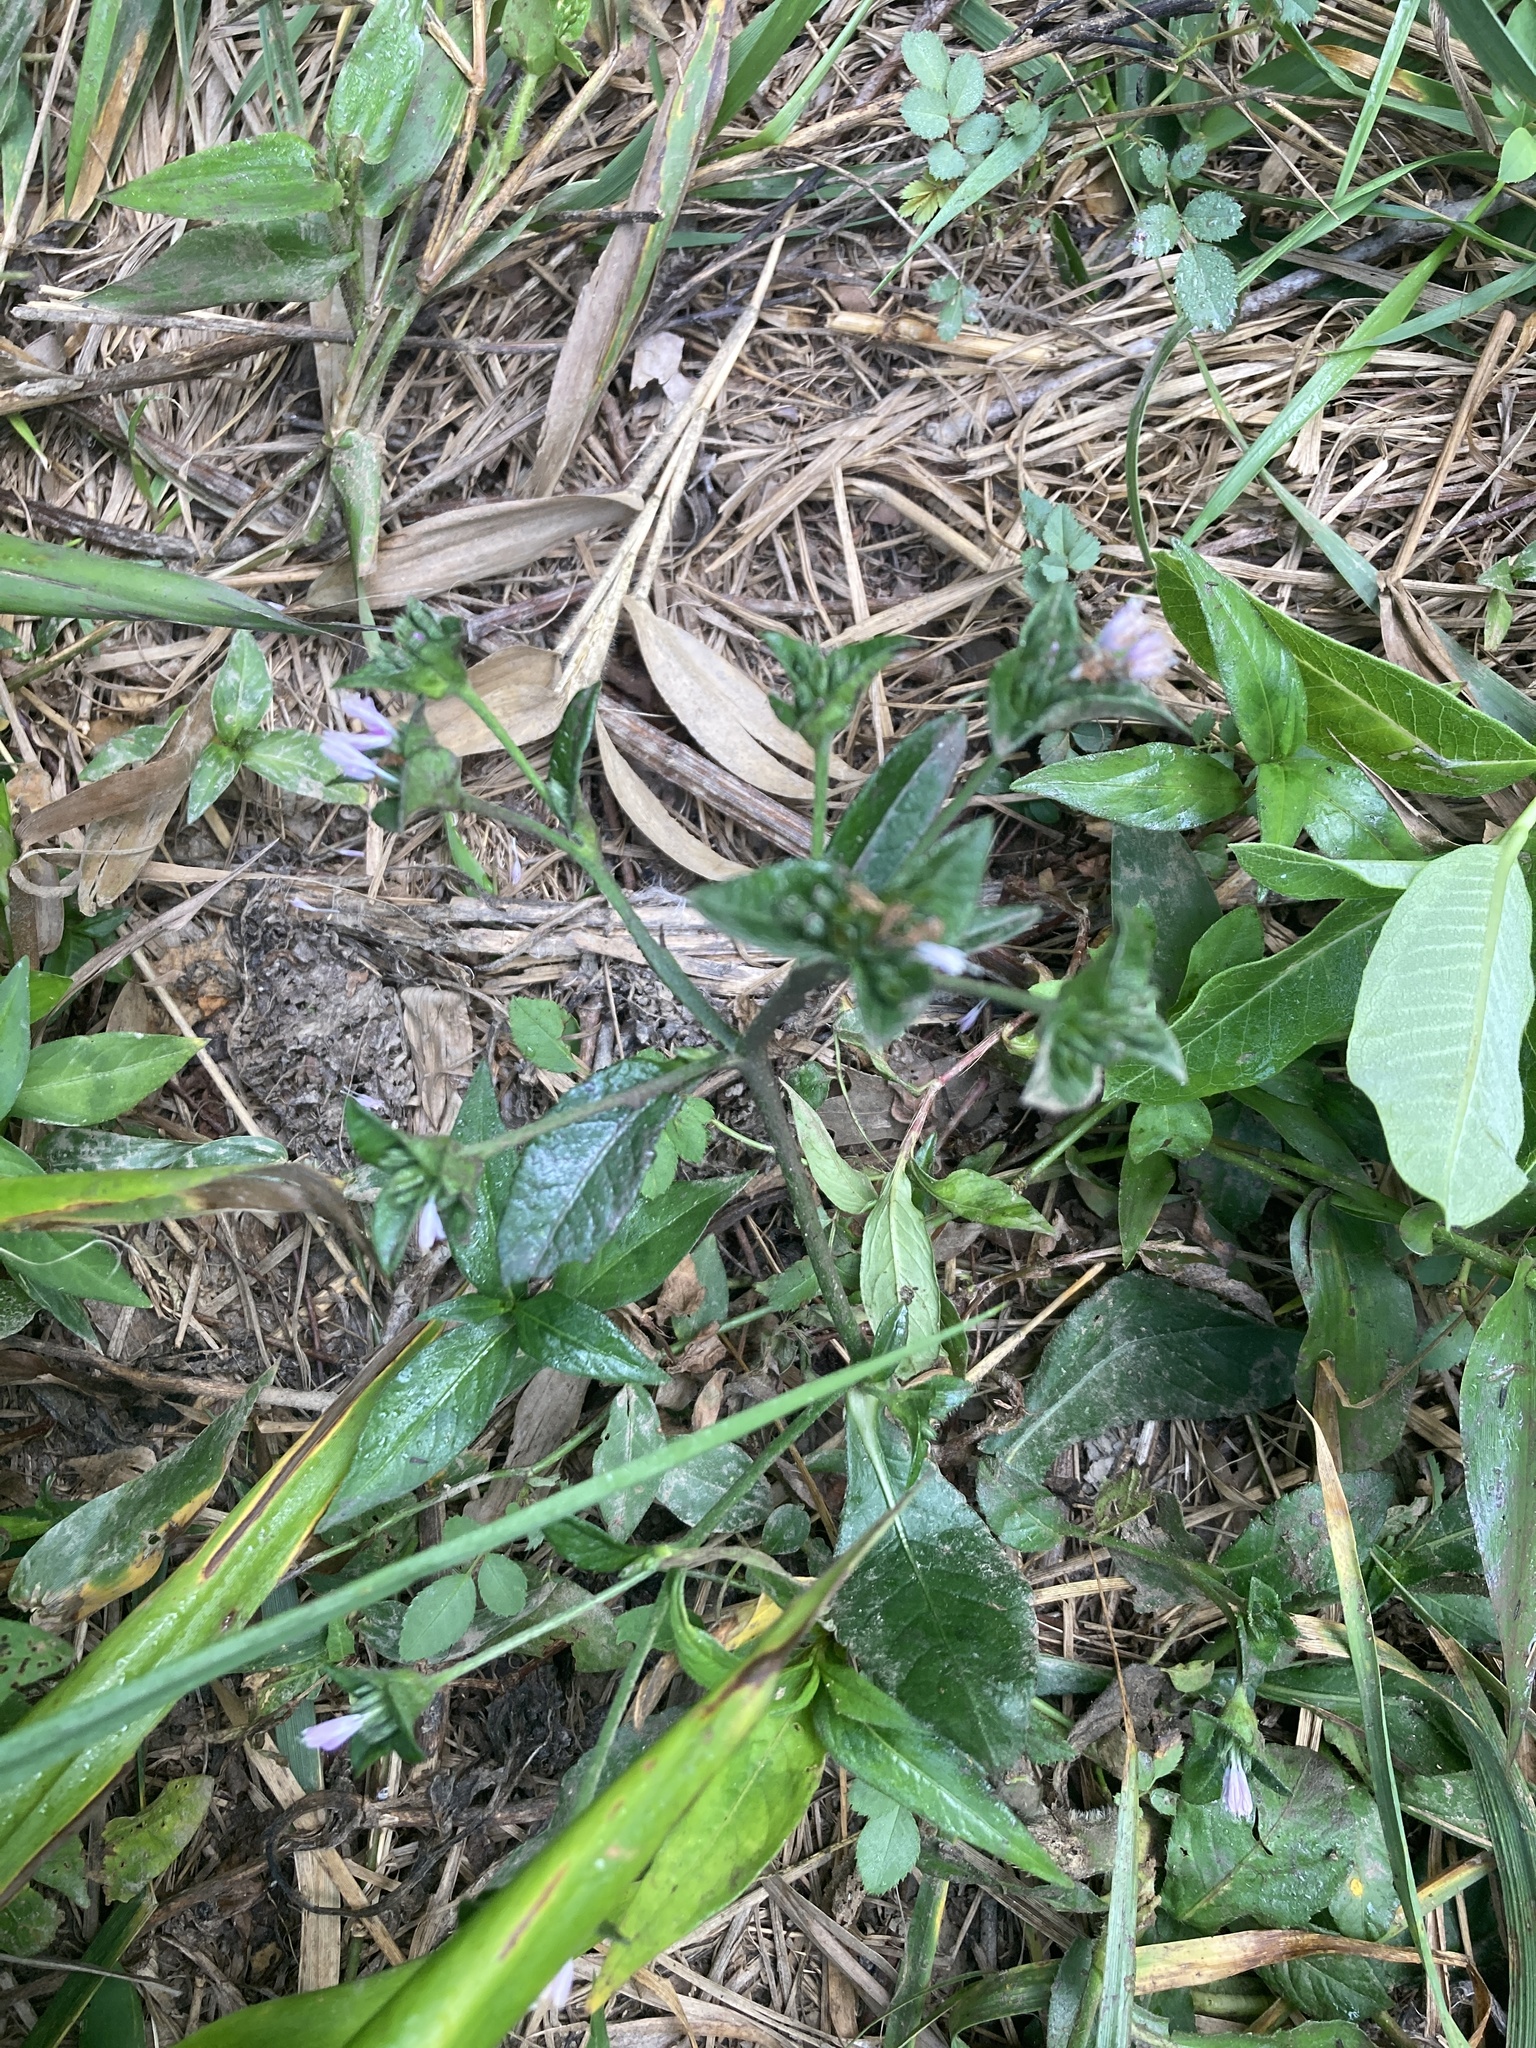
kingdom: Plantae
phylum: Tracheophyta
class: Magnoliopsida
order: Asterales
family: Asteraceae
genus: Elephantopus
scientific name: Elephantopus carolinianus
